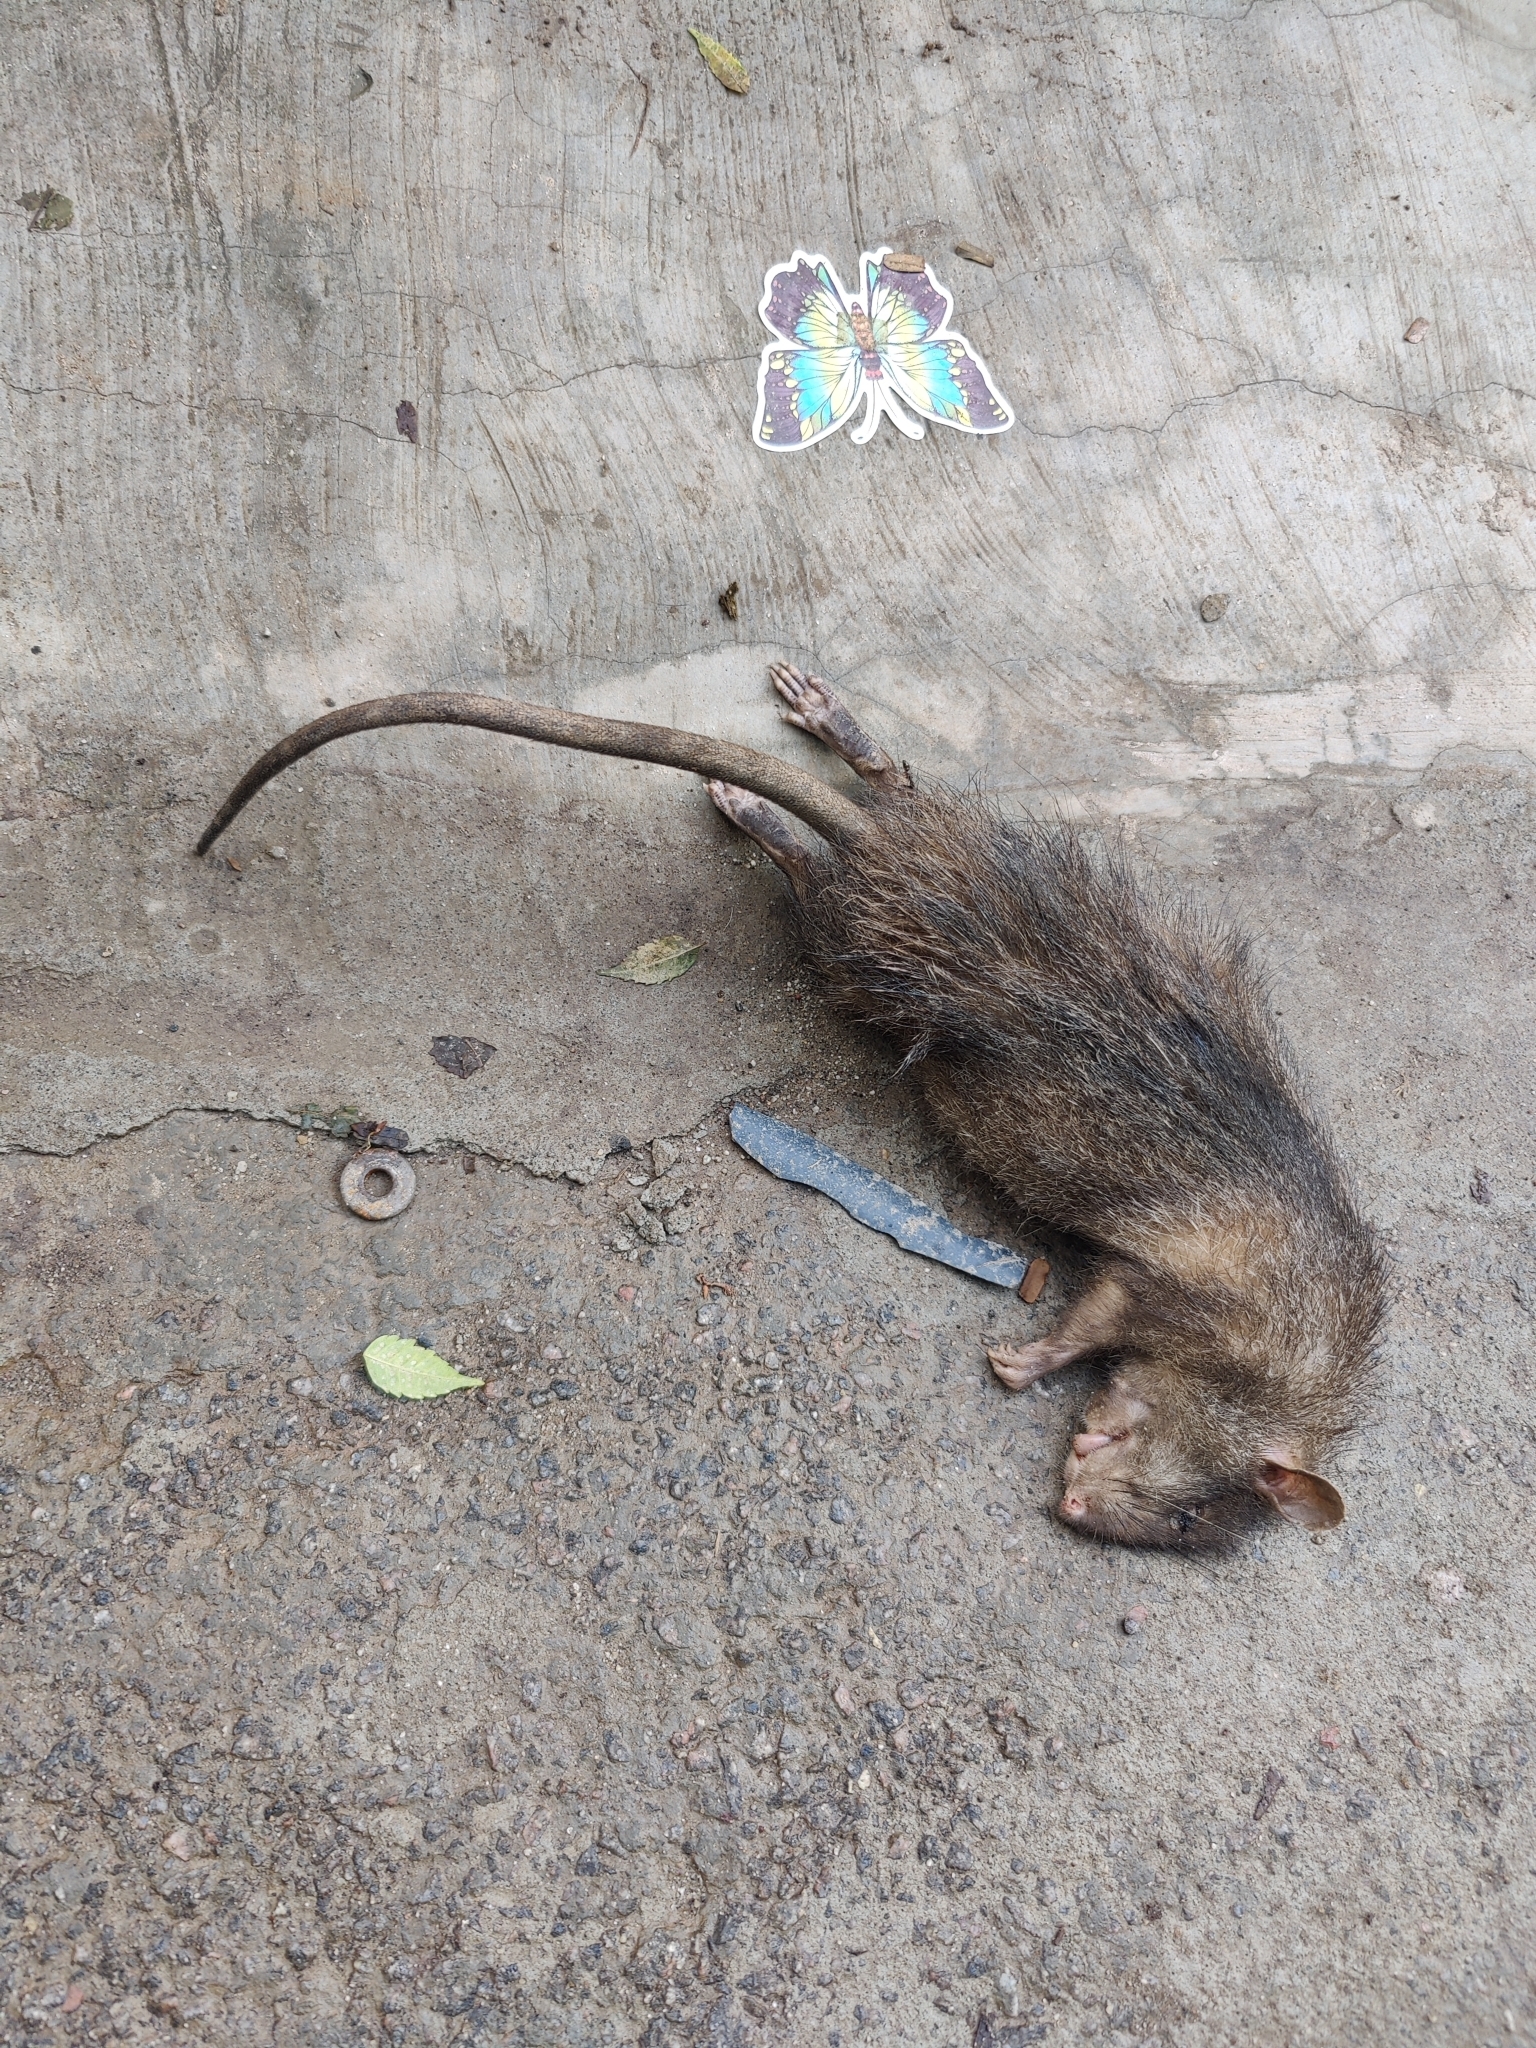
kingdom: Animalia
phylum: Chordata
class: Mammalia
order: Rodentia
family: Muridae
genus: Bandicota
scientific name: Bandicota bengalensis
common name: Lesser bandicoot rat
